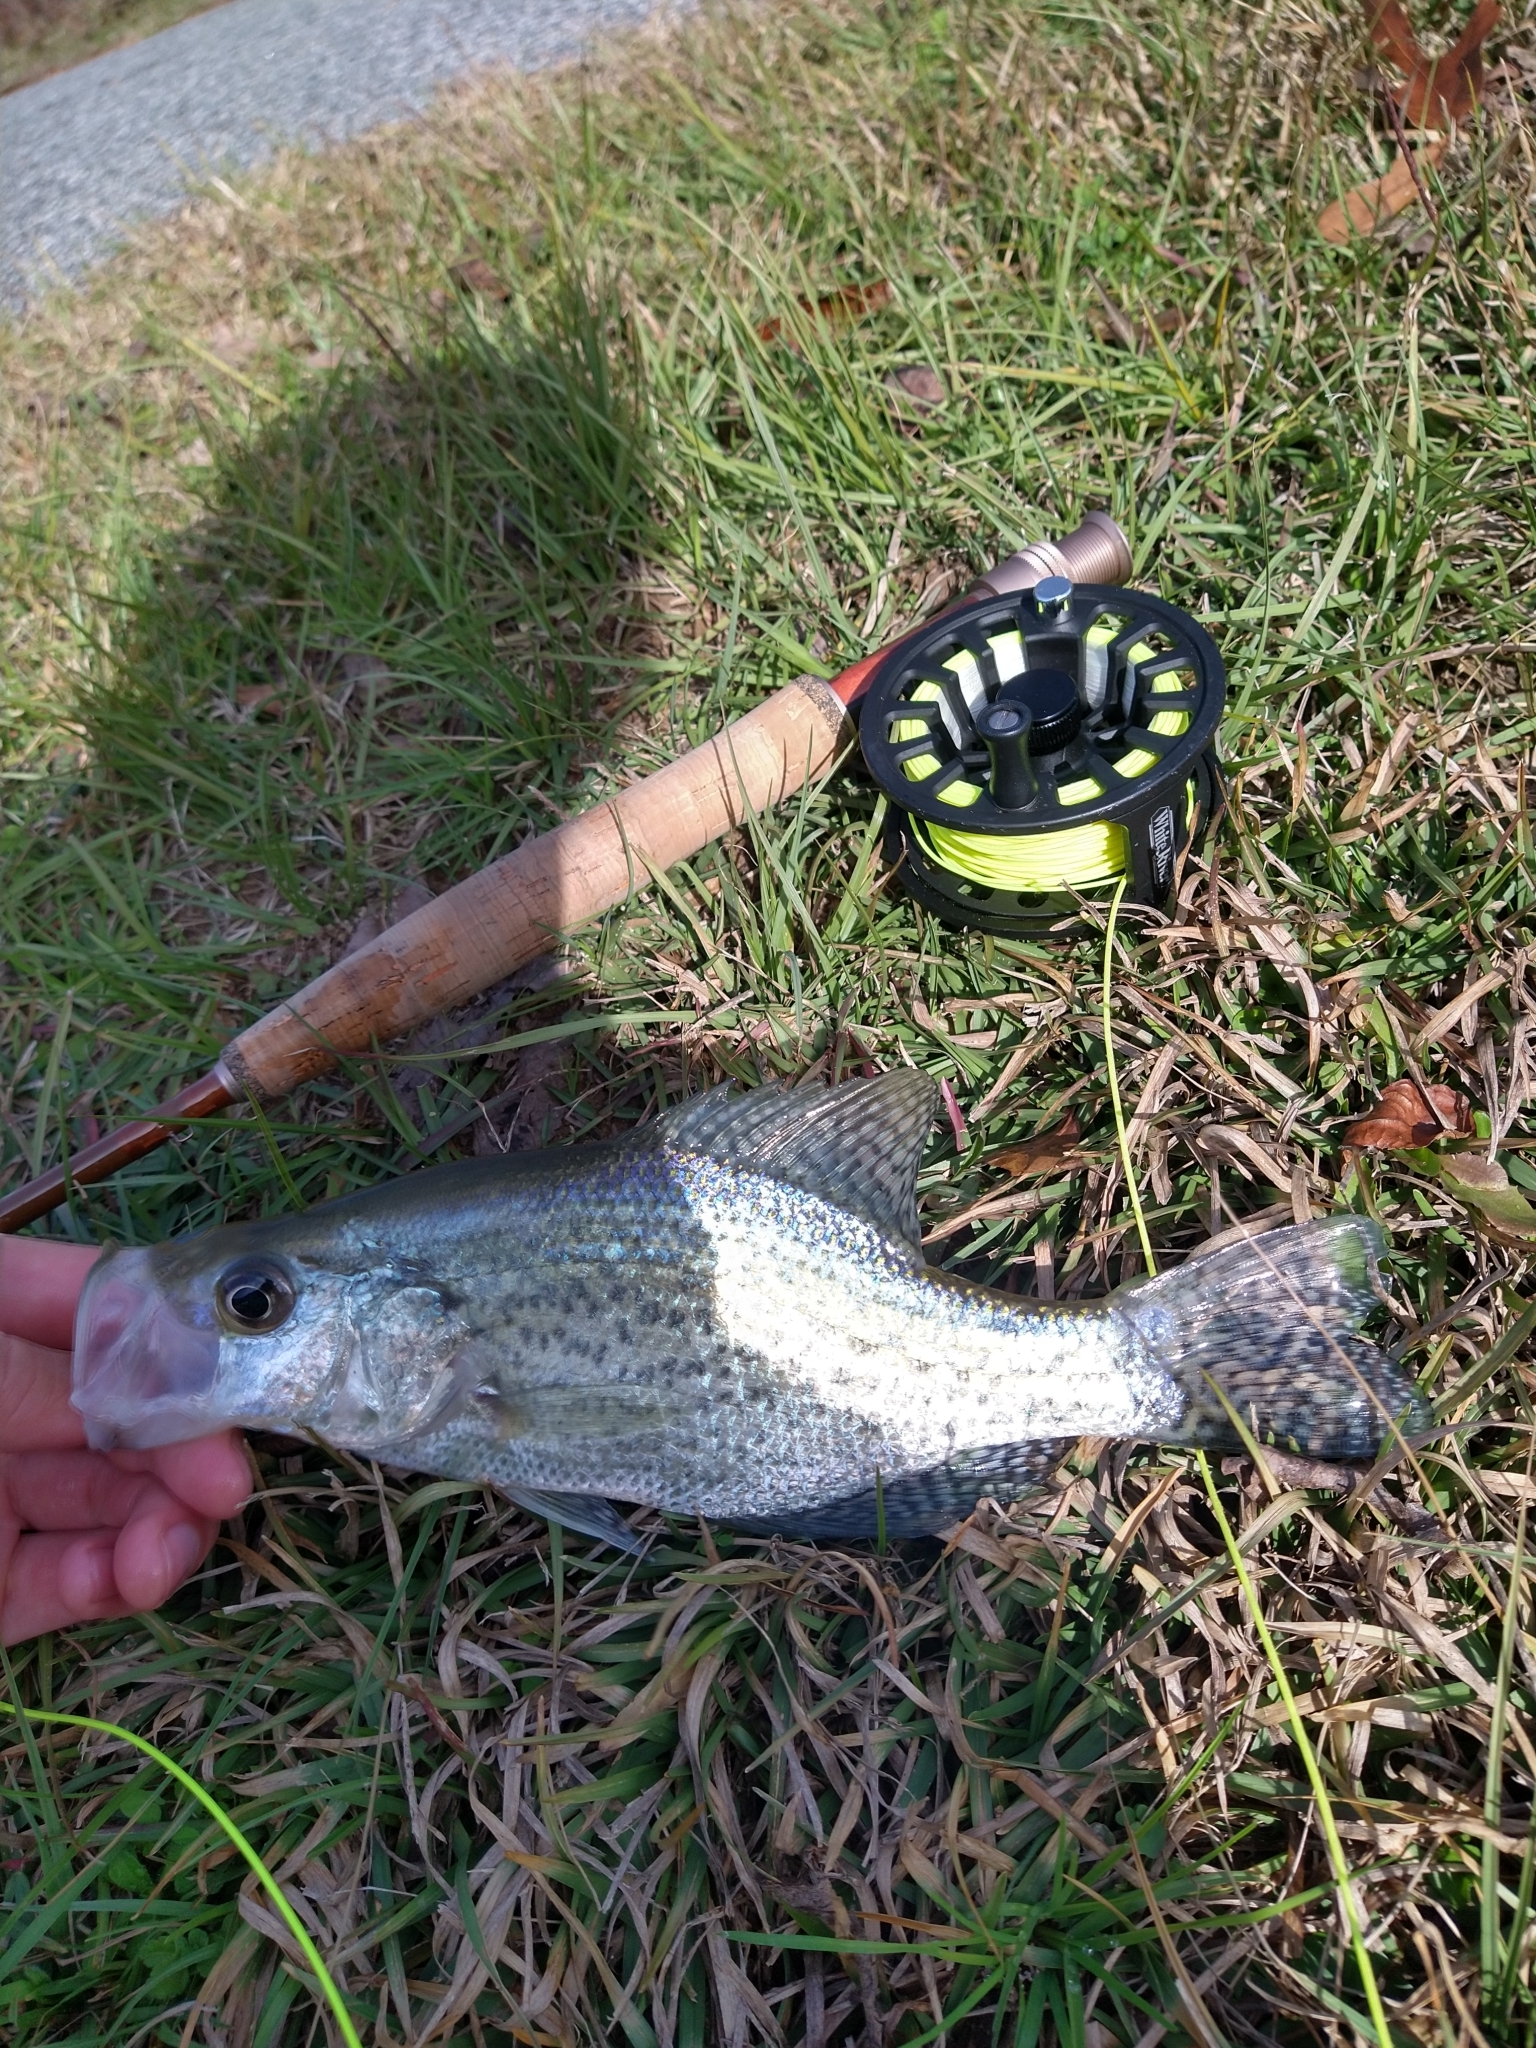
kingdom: Animalia
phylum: Chordata
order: Perciformes
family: Centrarchidae
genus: Pomoxis
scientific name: Pomoxis nigromaculatus
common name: Black crappie
